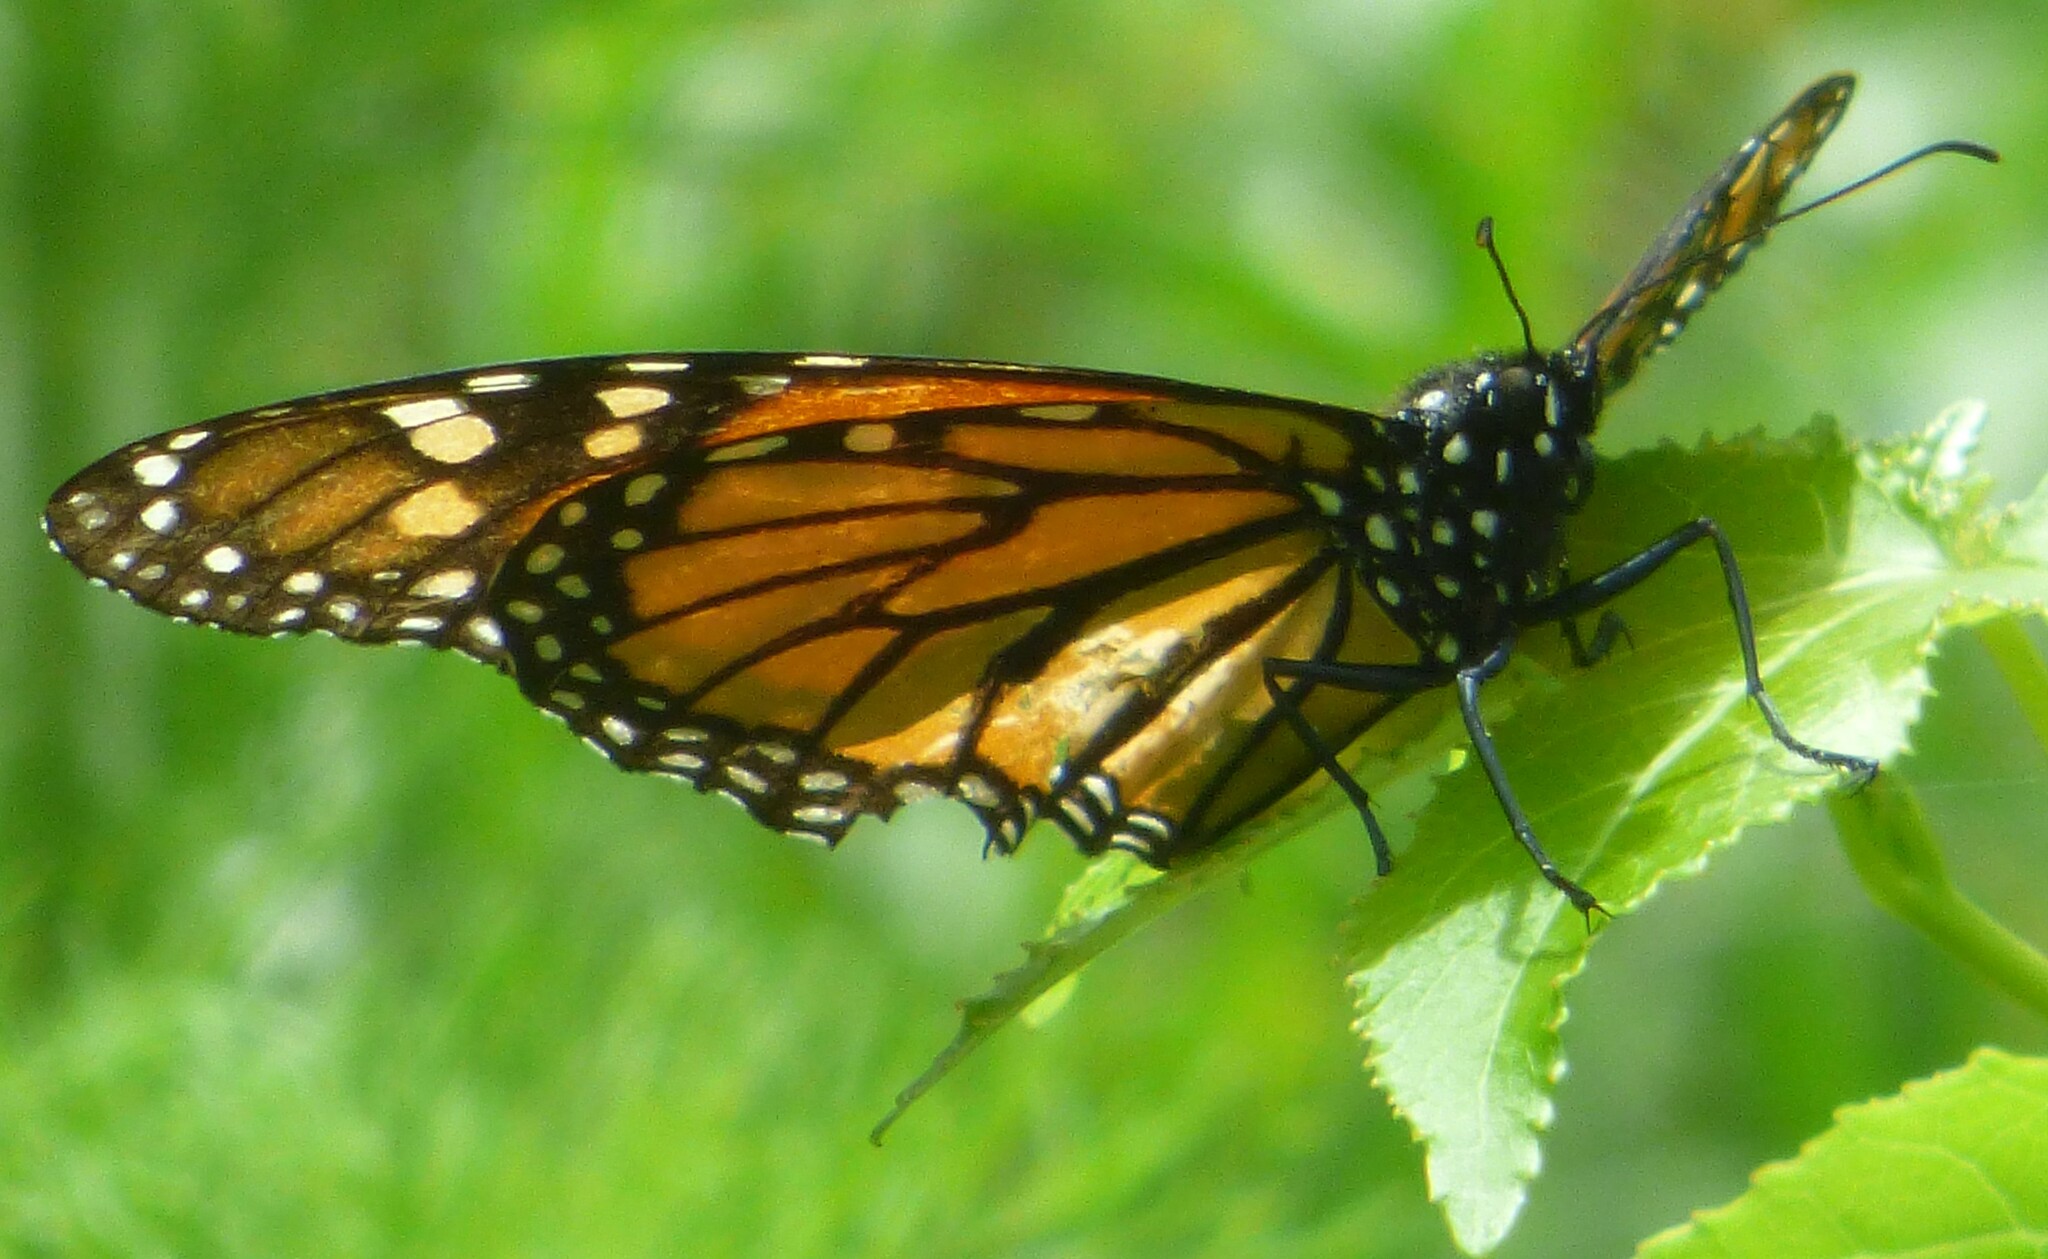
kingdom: Animalia
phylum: Arthropoda
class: Insecta
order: Lepidoptera
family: Nymphalidae
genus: Danaus
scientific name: Danaus plexippus
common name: Monarch
